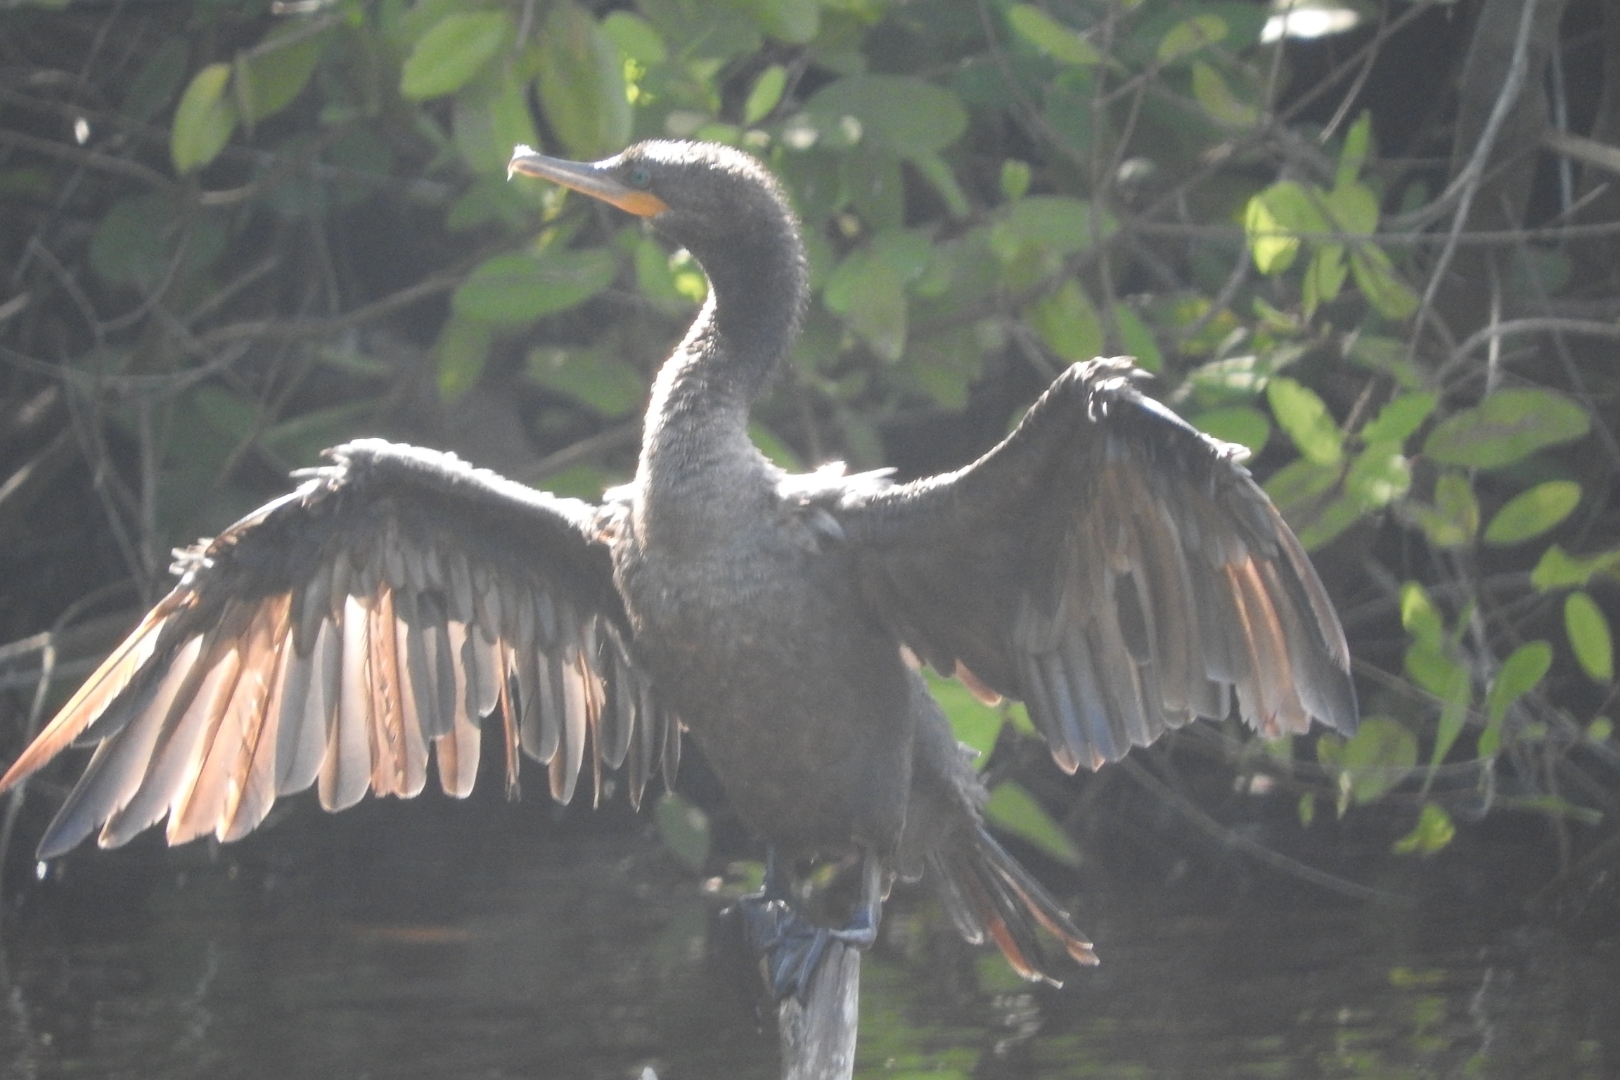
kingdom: Animalia
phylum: Chordata
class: Aves
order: Suliformes
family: Phalacrocoracidae
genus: Phalacrocorax
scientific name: Phalacrocorax brasilianus
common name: Neotropic cormorant
